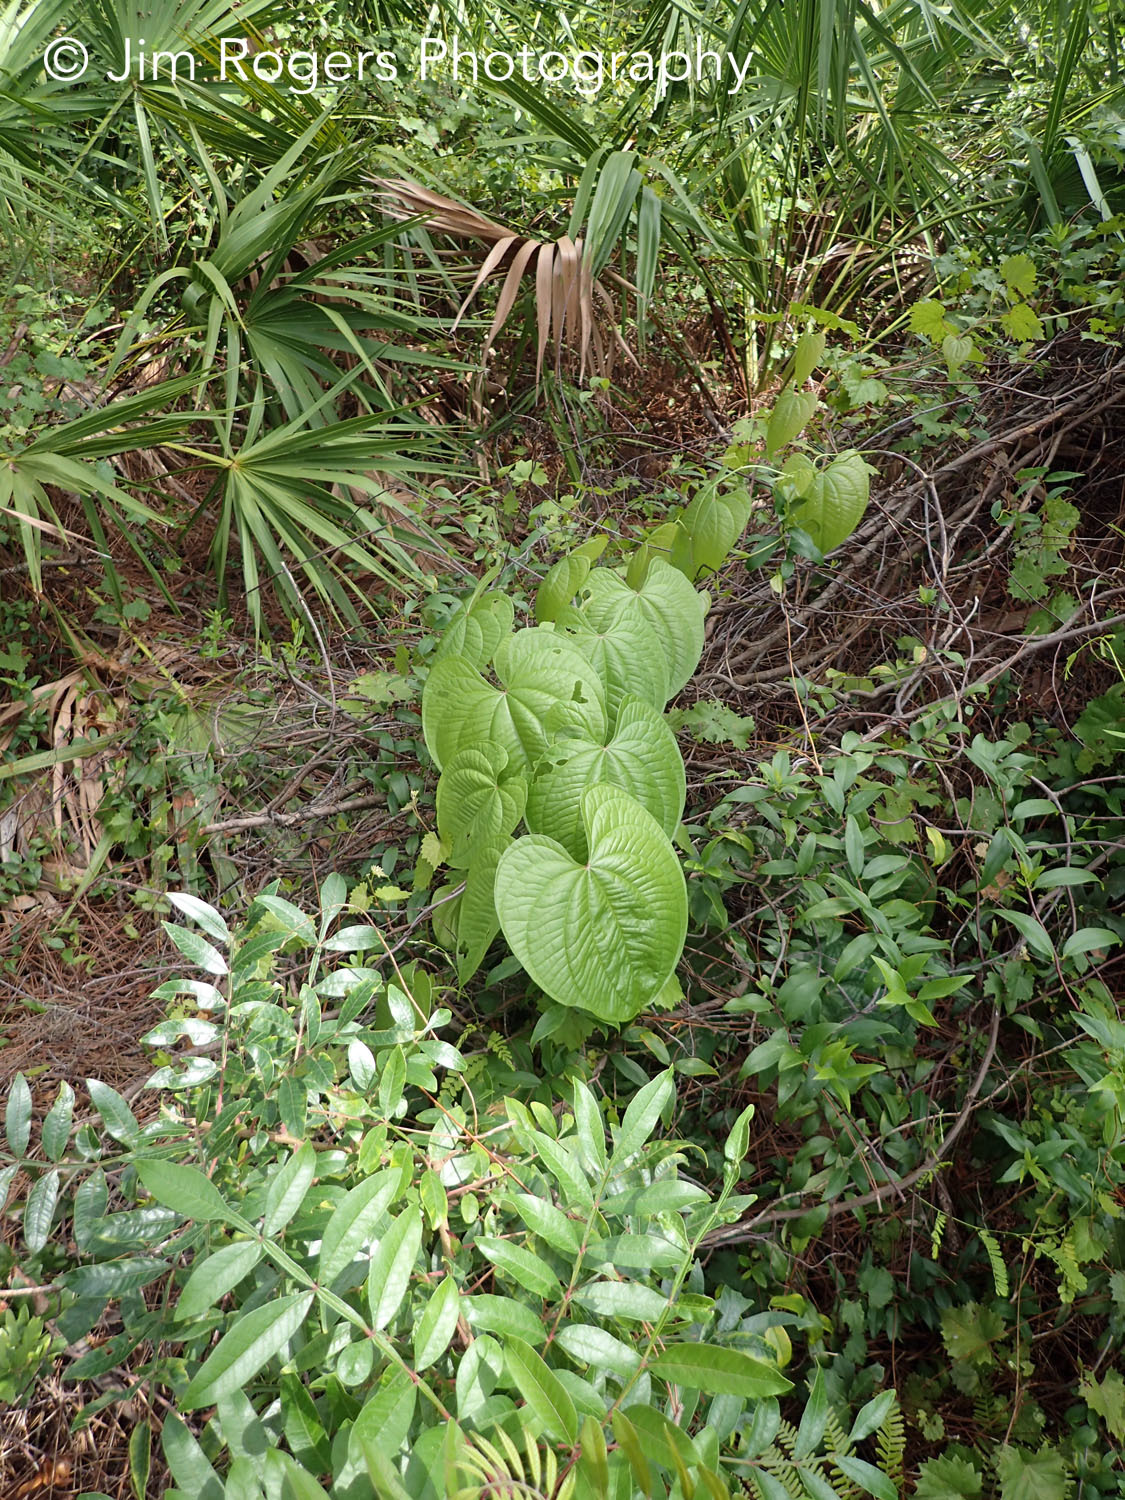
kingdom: Plantae
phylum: Tracheophyta
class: Liliopsida
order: Dioscoreales
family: Dioscoreaceae
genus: Dioscorea
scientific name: Dioscorea bulbifera
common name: Air yam
